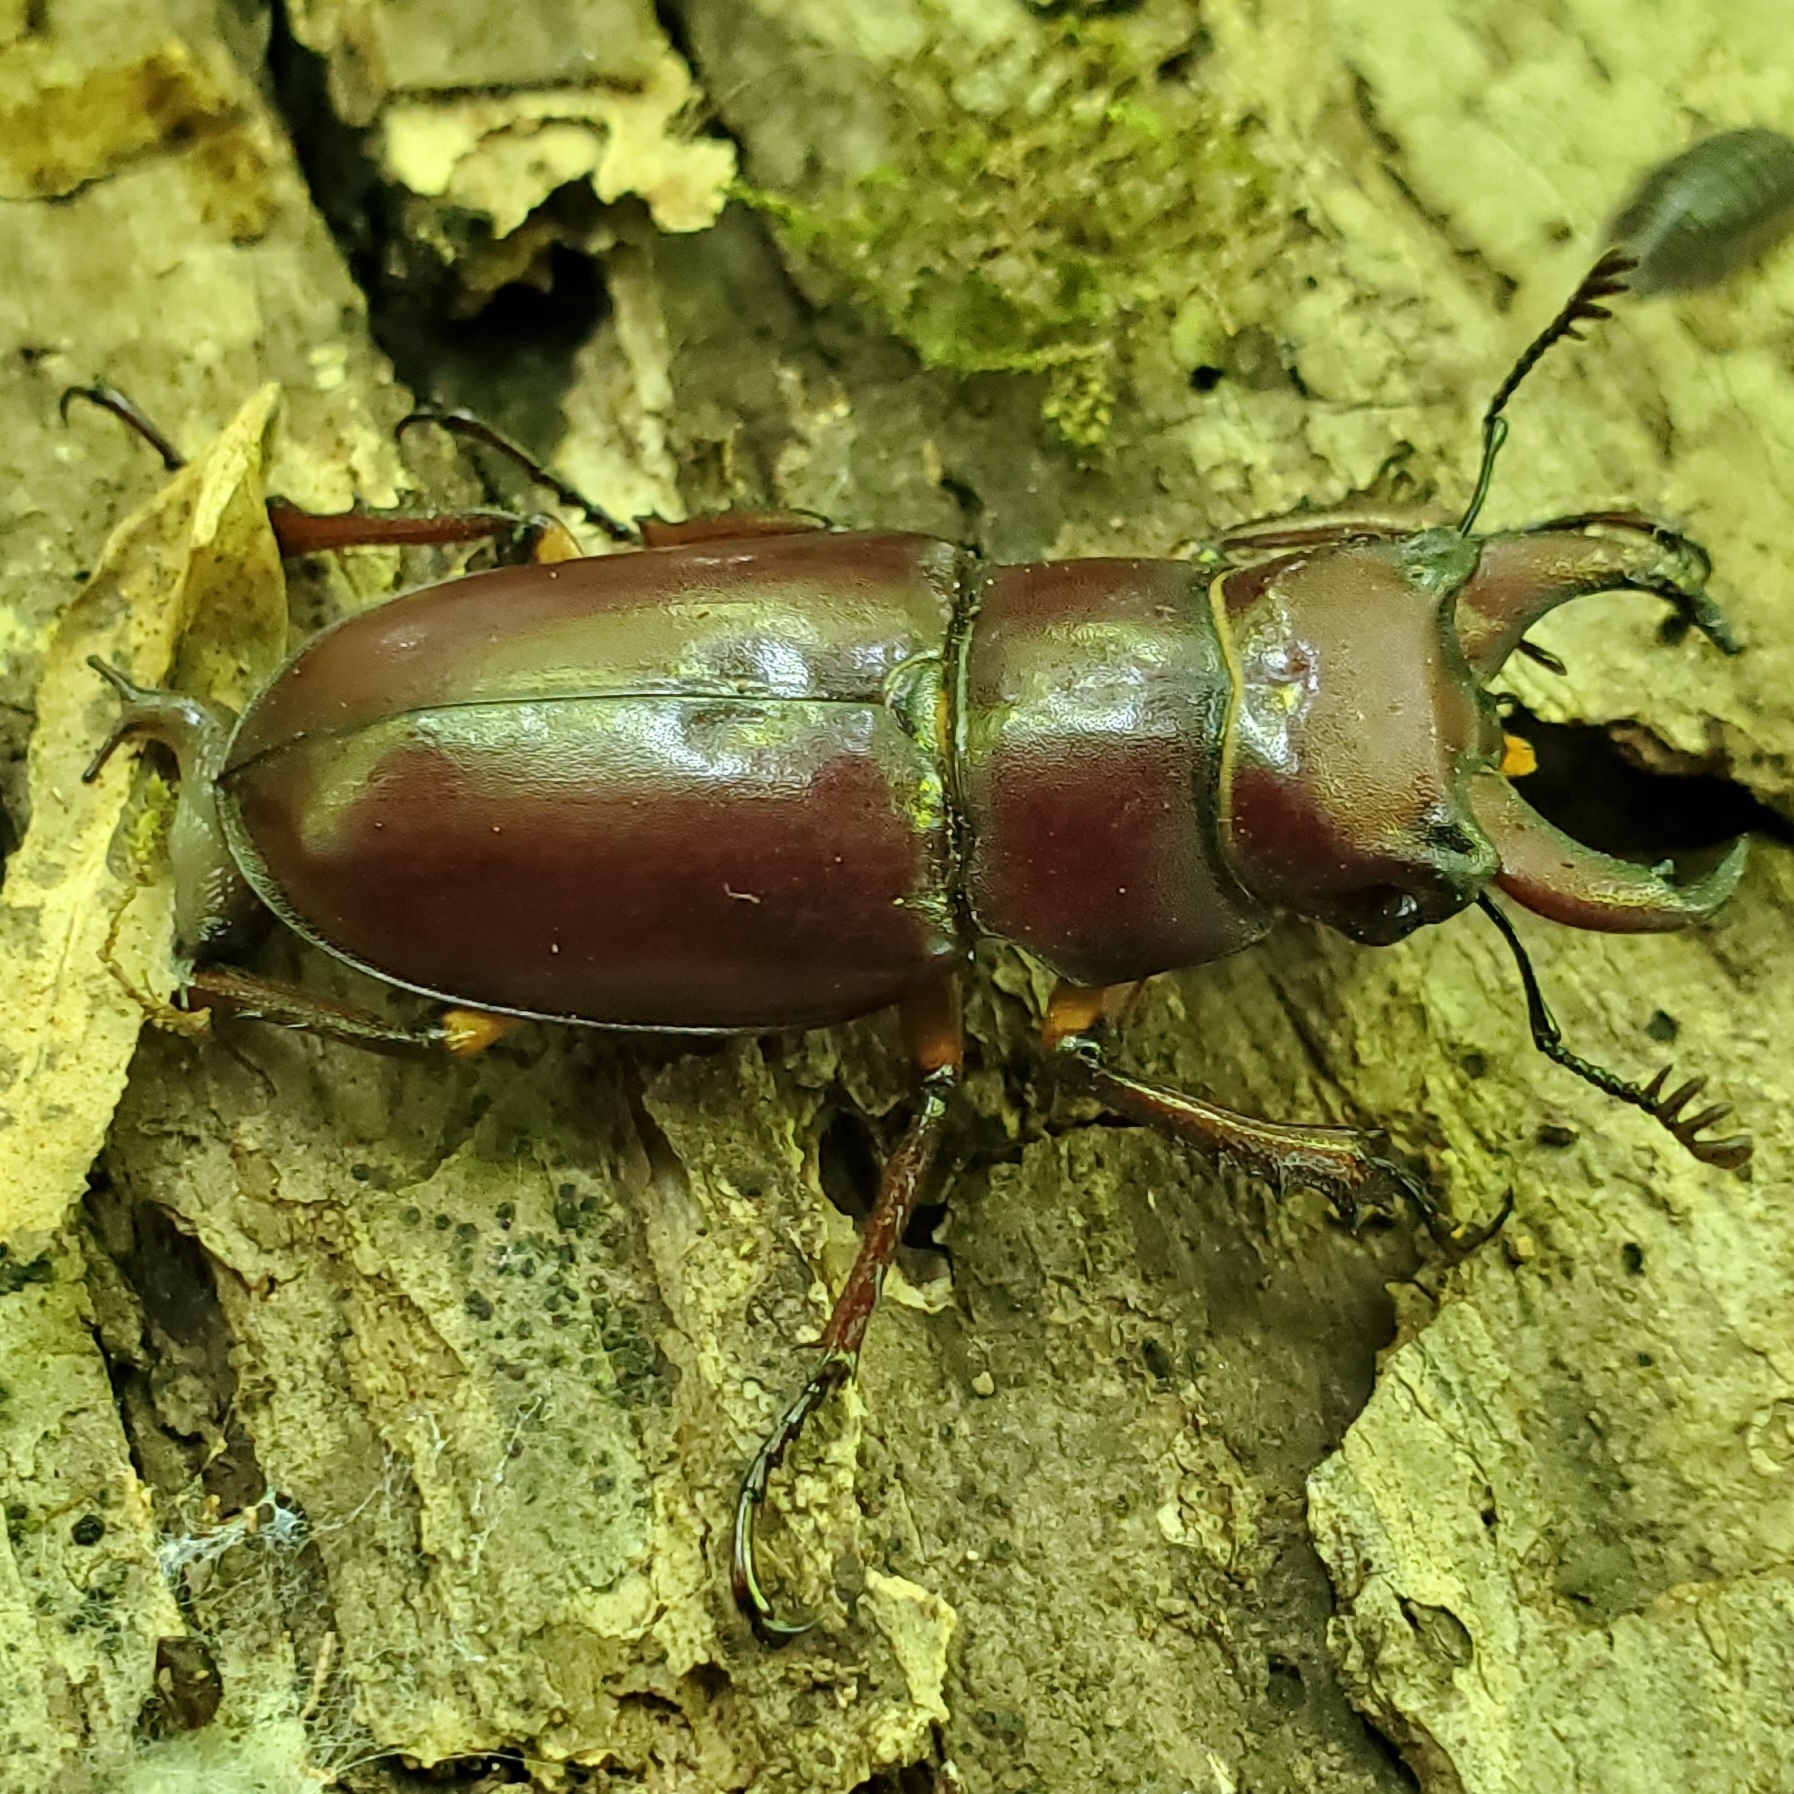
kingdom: Animalia
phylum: Arthropoda
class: Insecta
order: Coleoptera
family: Lucanidae
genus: Lucanus
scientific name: Lucanus capreolus
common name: Stag beetle
